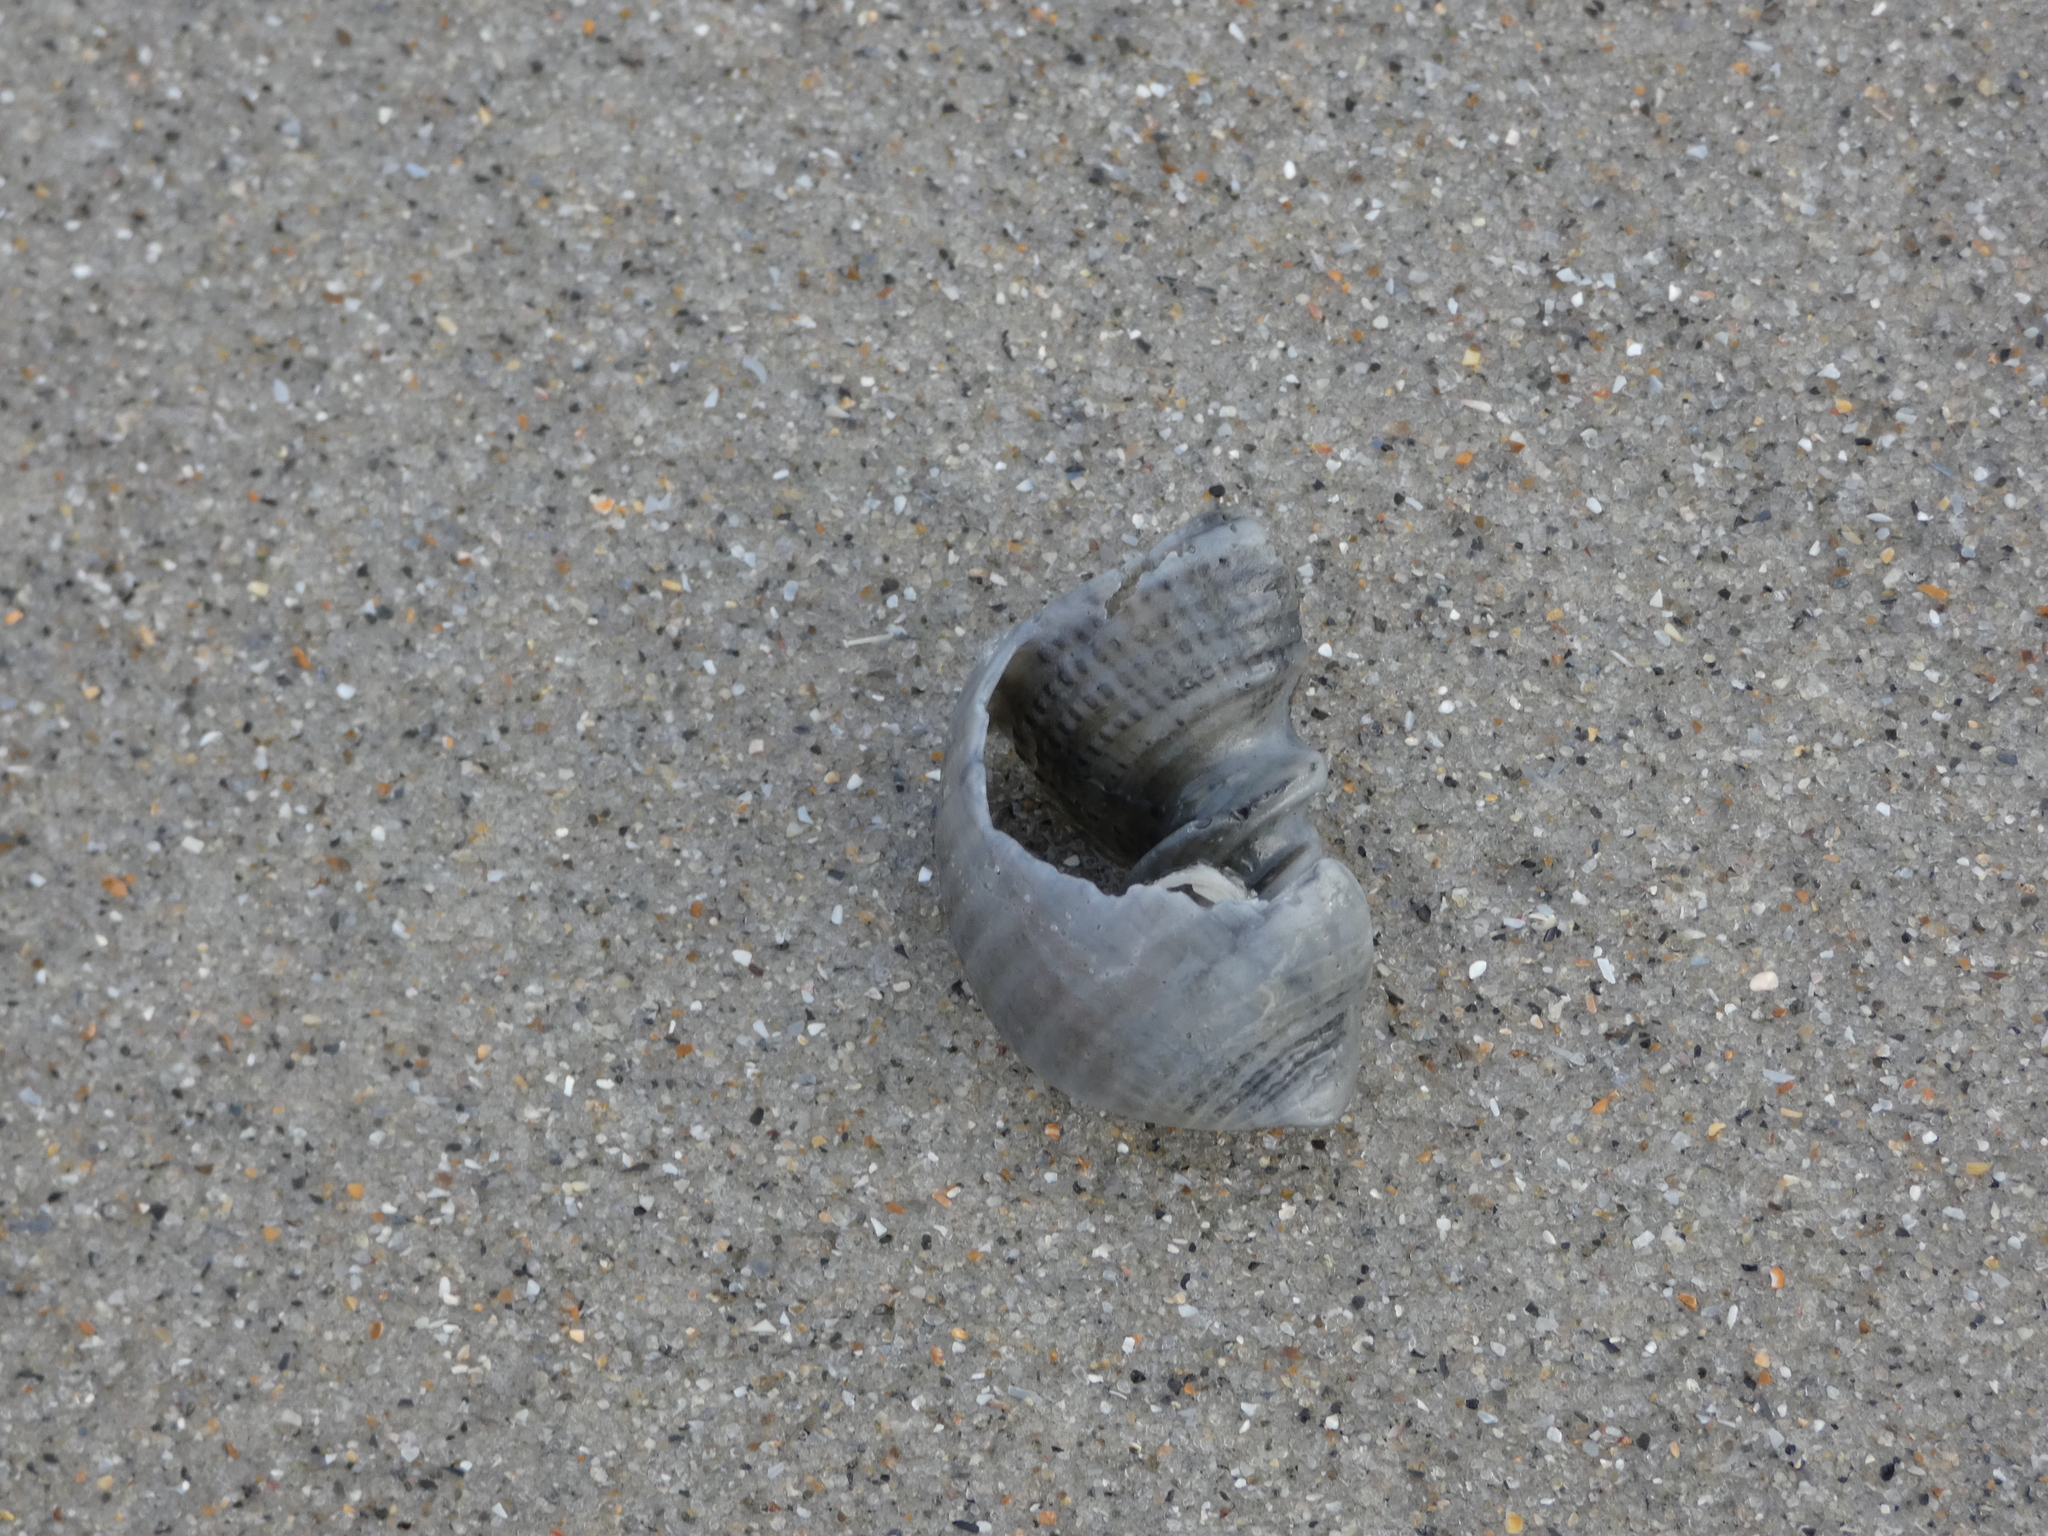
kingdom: Animalia
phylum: Mollusca
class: Gastropoda
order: Neogastropoda
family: Cancellariidae
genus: Cancellaria
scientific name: Cancellaria reticulata
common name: Common nutmeg
